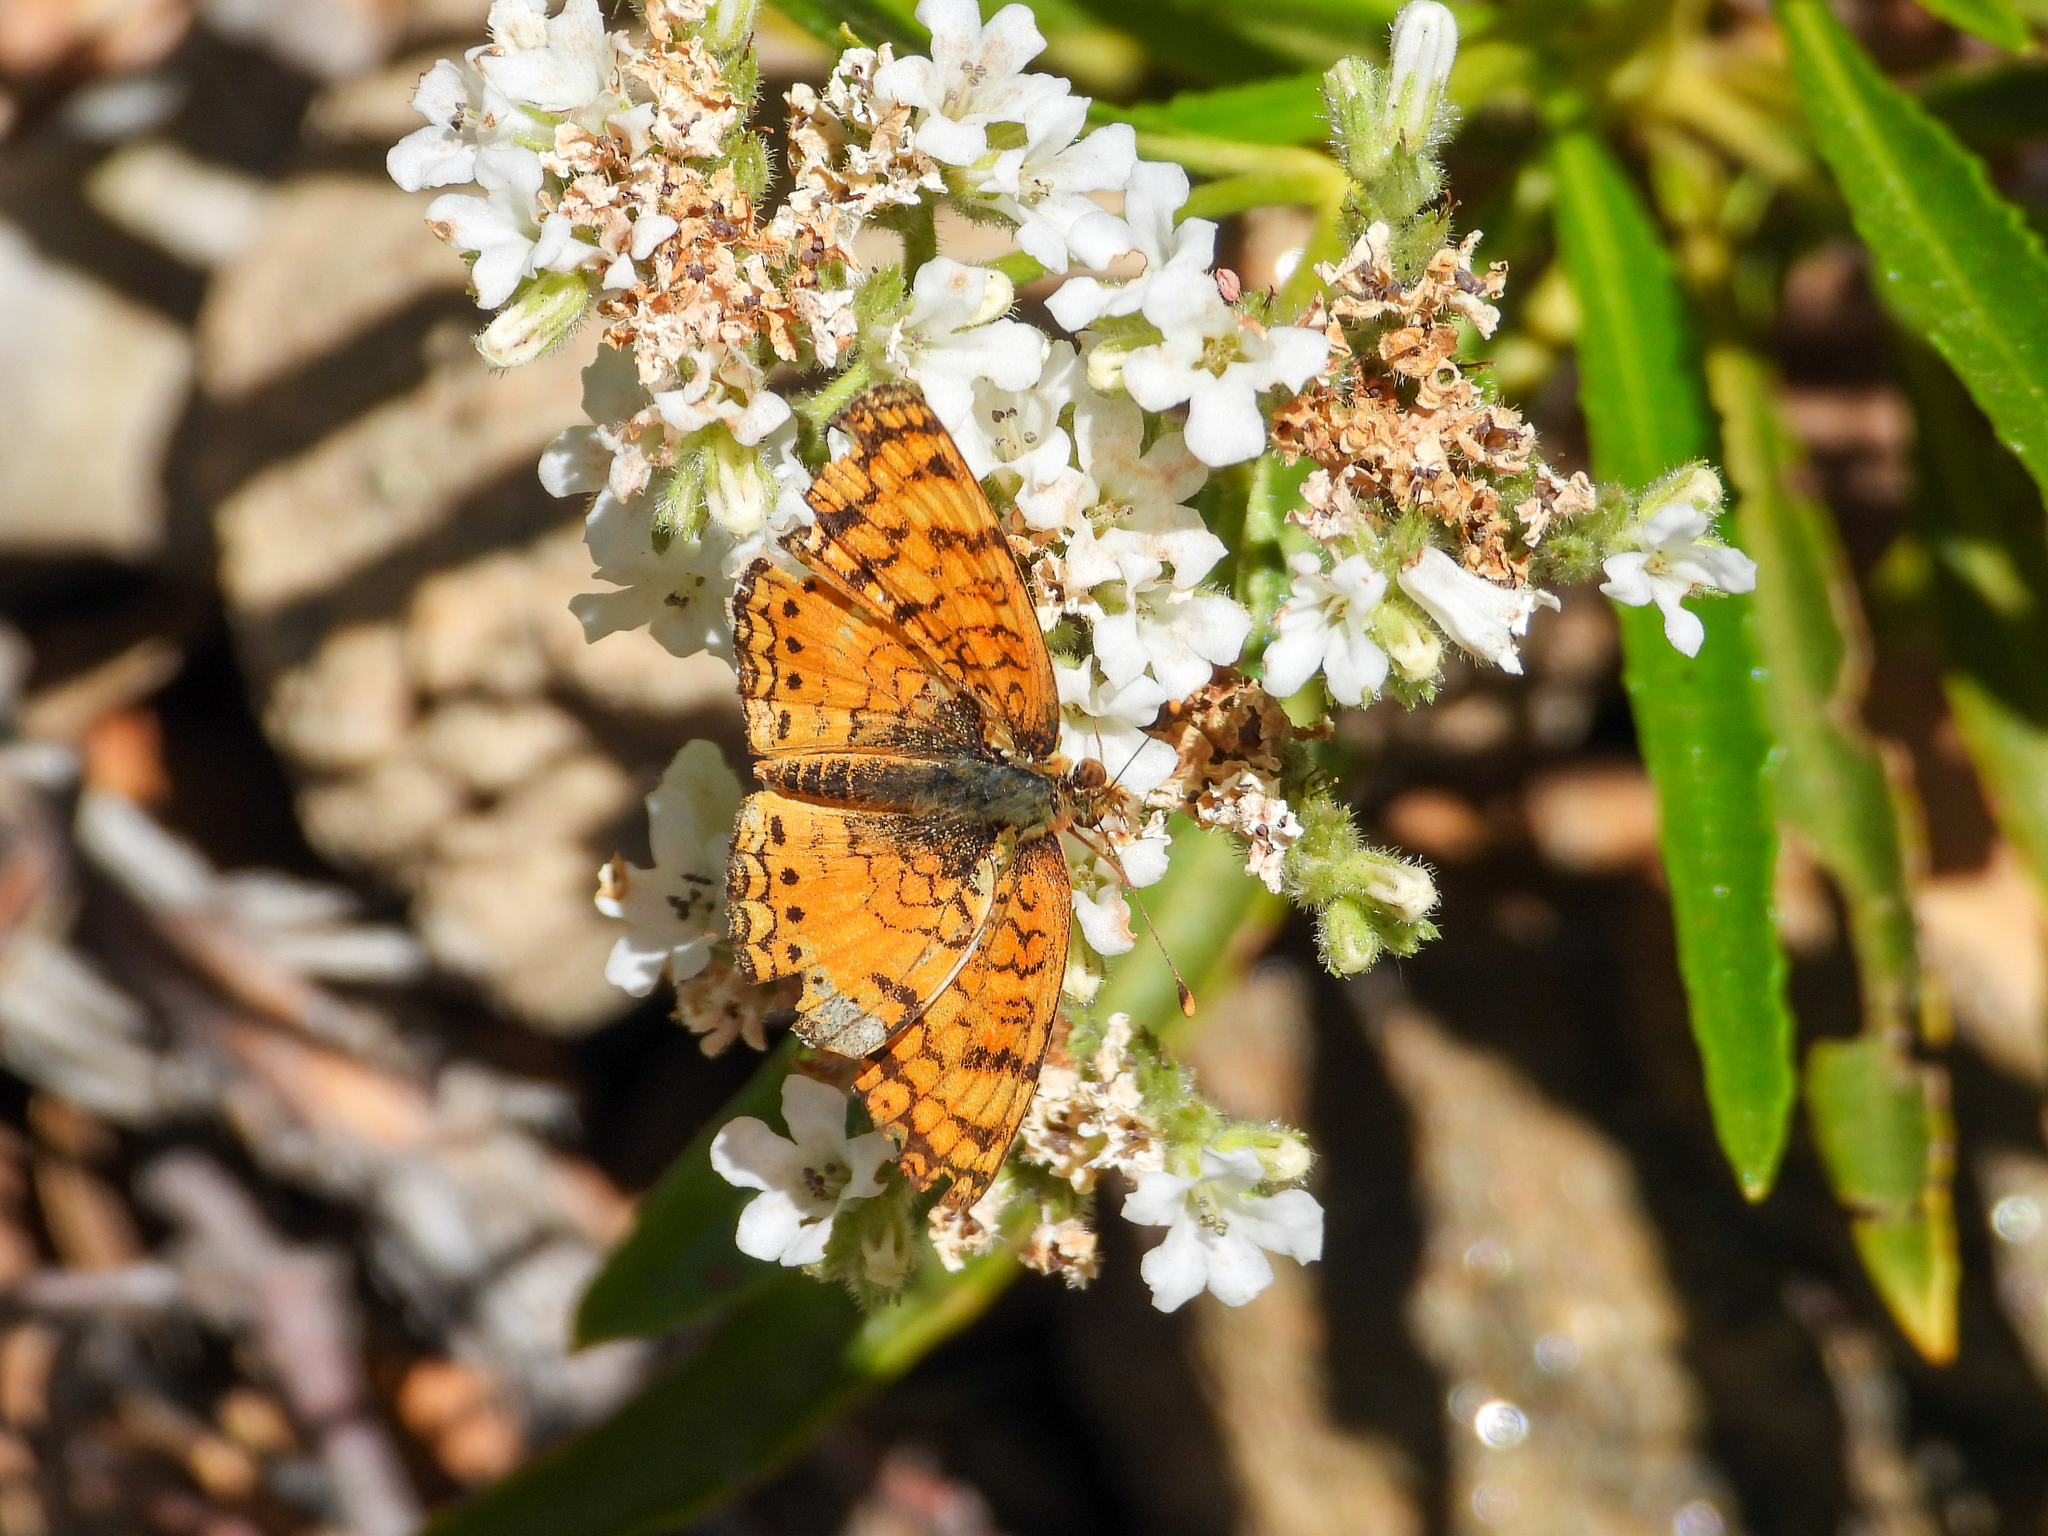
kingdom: Animalia
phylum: Arthropoda
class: Insecta
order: Lepidoptera
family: Nymphalidae
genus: Eresia
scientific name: Eresia aveyrona
